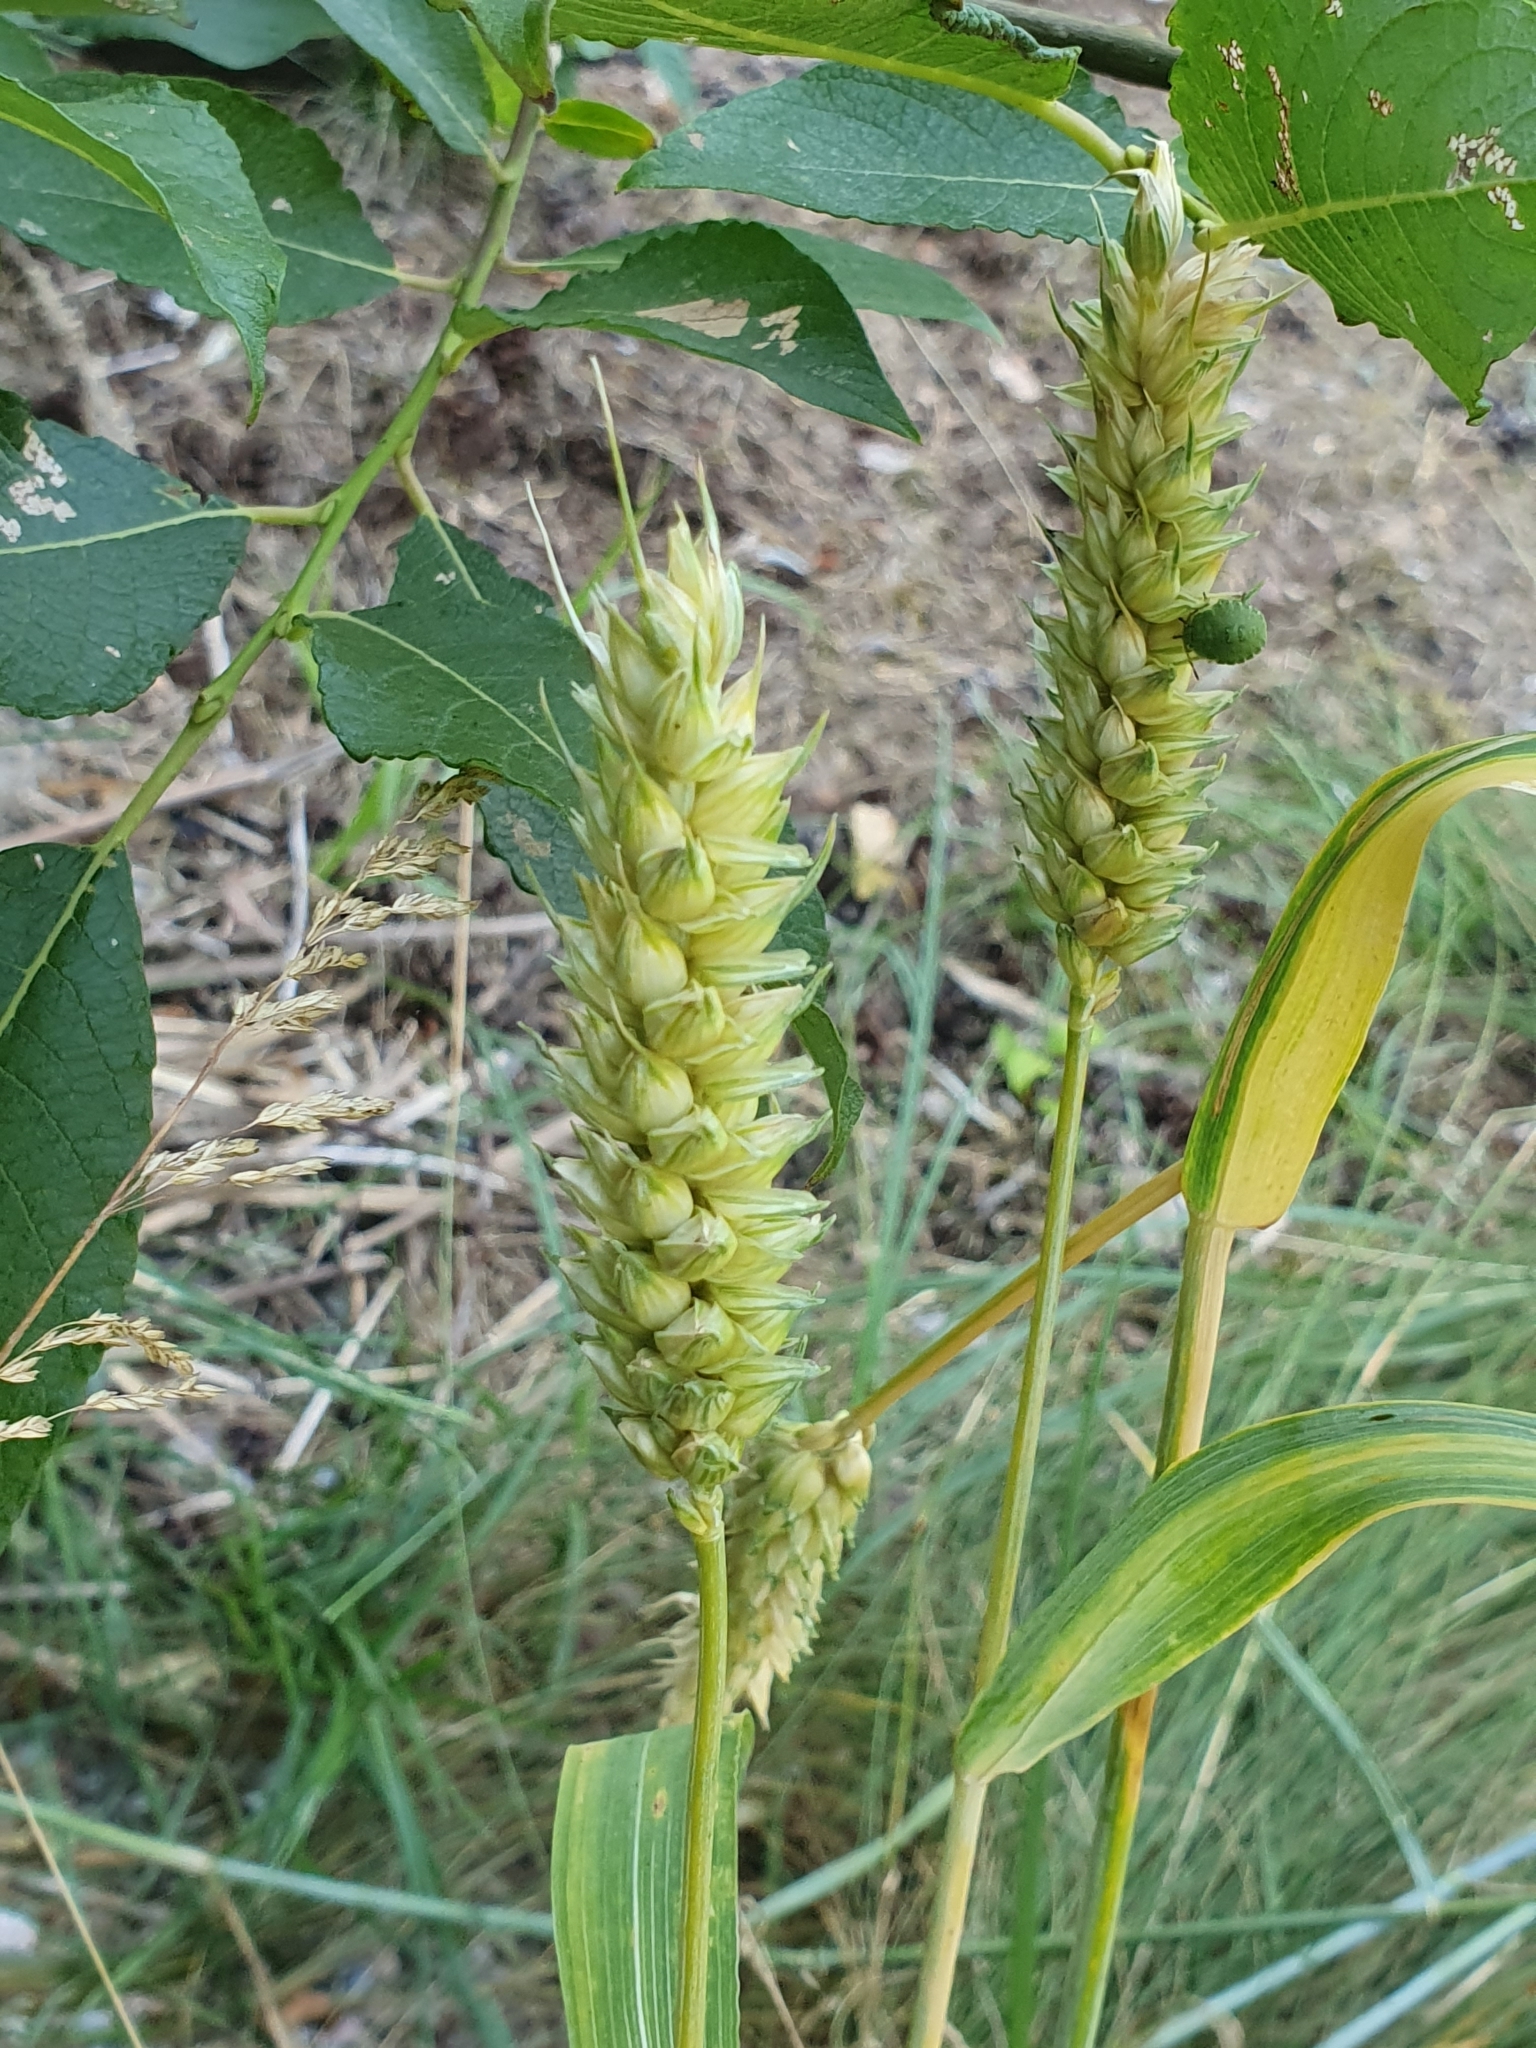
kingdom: Plantae
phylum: Tracheophyta
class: Liliopsida
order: Poales
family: Poaceae
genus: Triticum
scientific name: Triticum aestivum
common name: Common wheat
